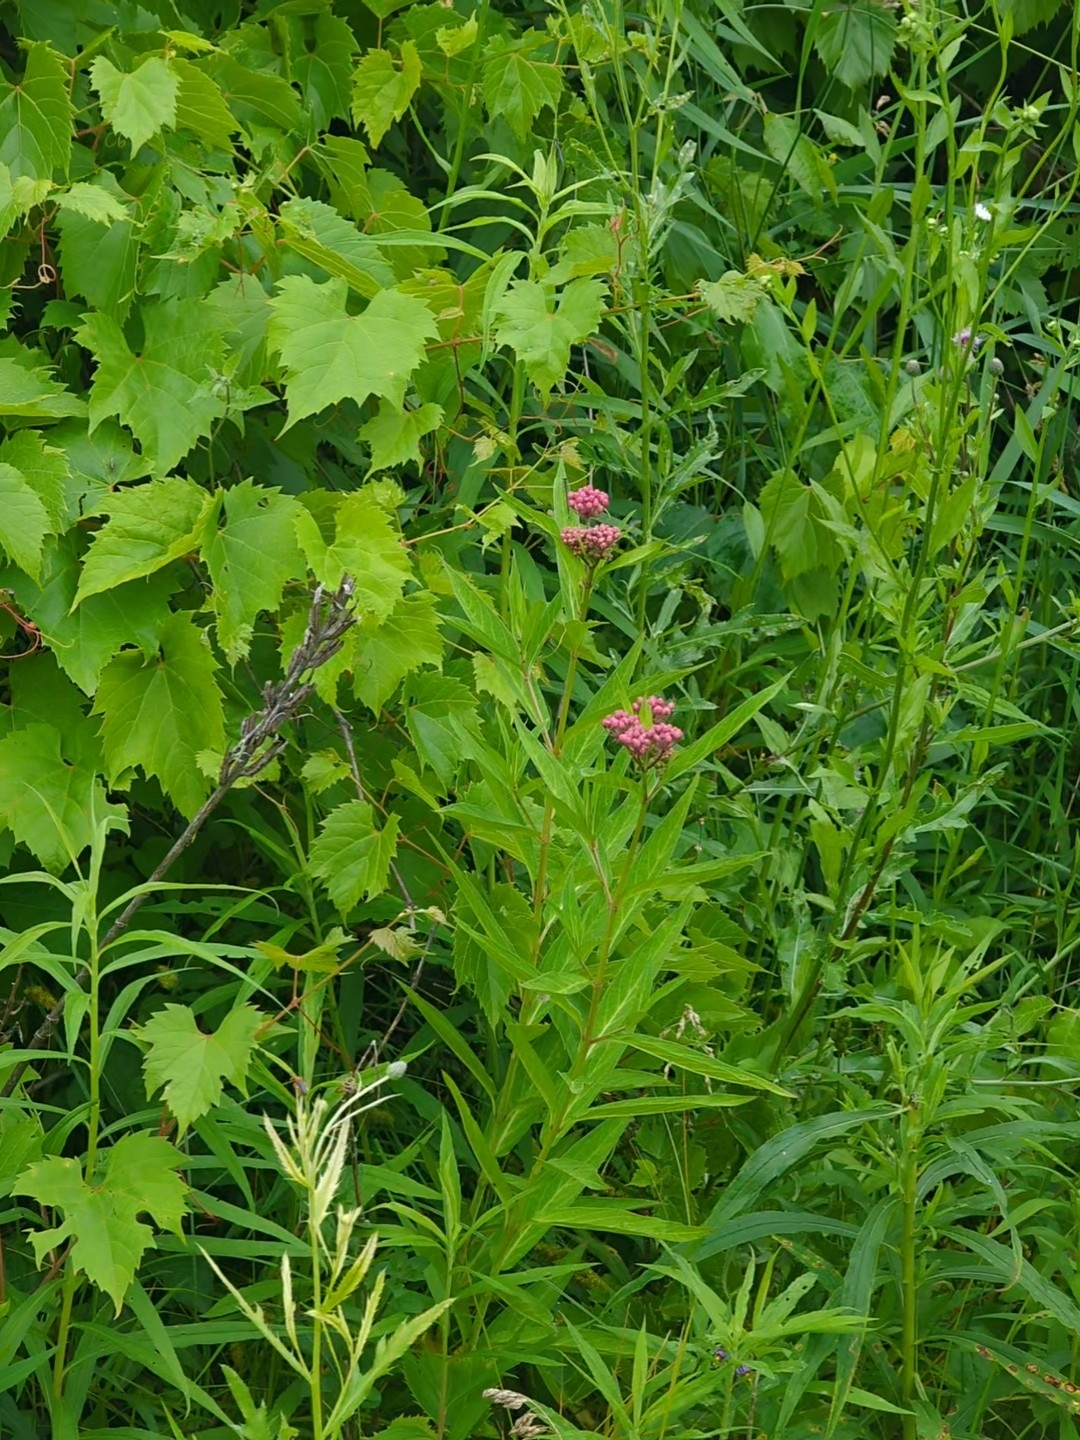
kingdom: Plantae
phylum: Tracheophyta
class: Magnoliopsida
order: Gentianales
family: Apocynaceae
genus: Asclepias
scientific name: Asclepias incarnata
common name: Swamp milkweed
